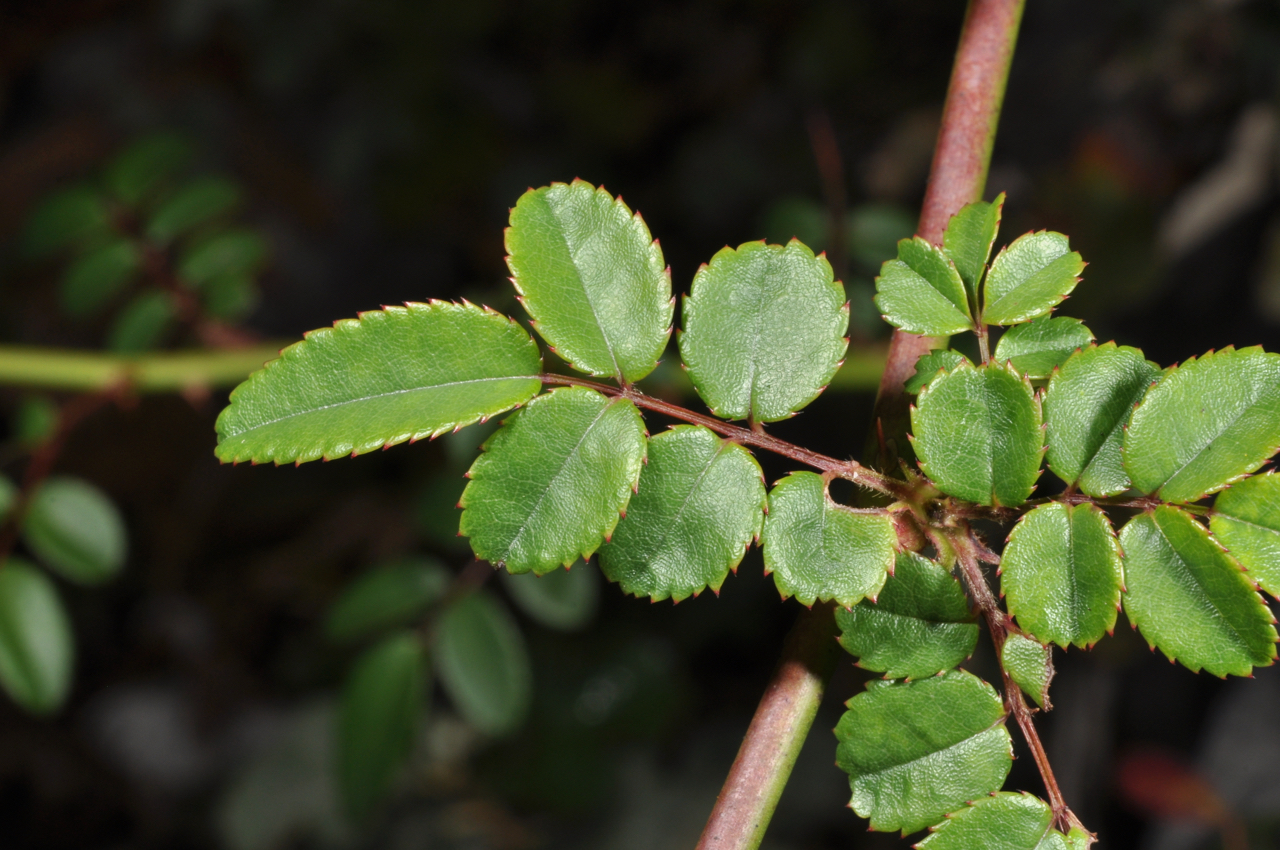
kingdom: Plantae
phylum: Tracheophyta
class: Magnoliopsida
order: Rosales
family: Rosaceae
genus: Rosa
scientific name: Rosa pricei
